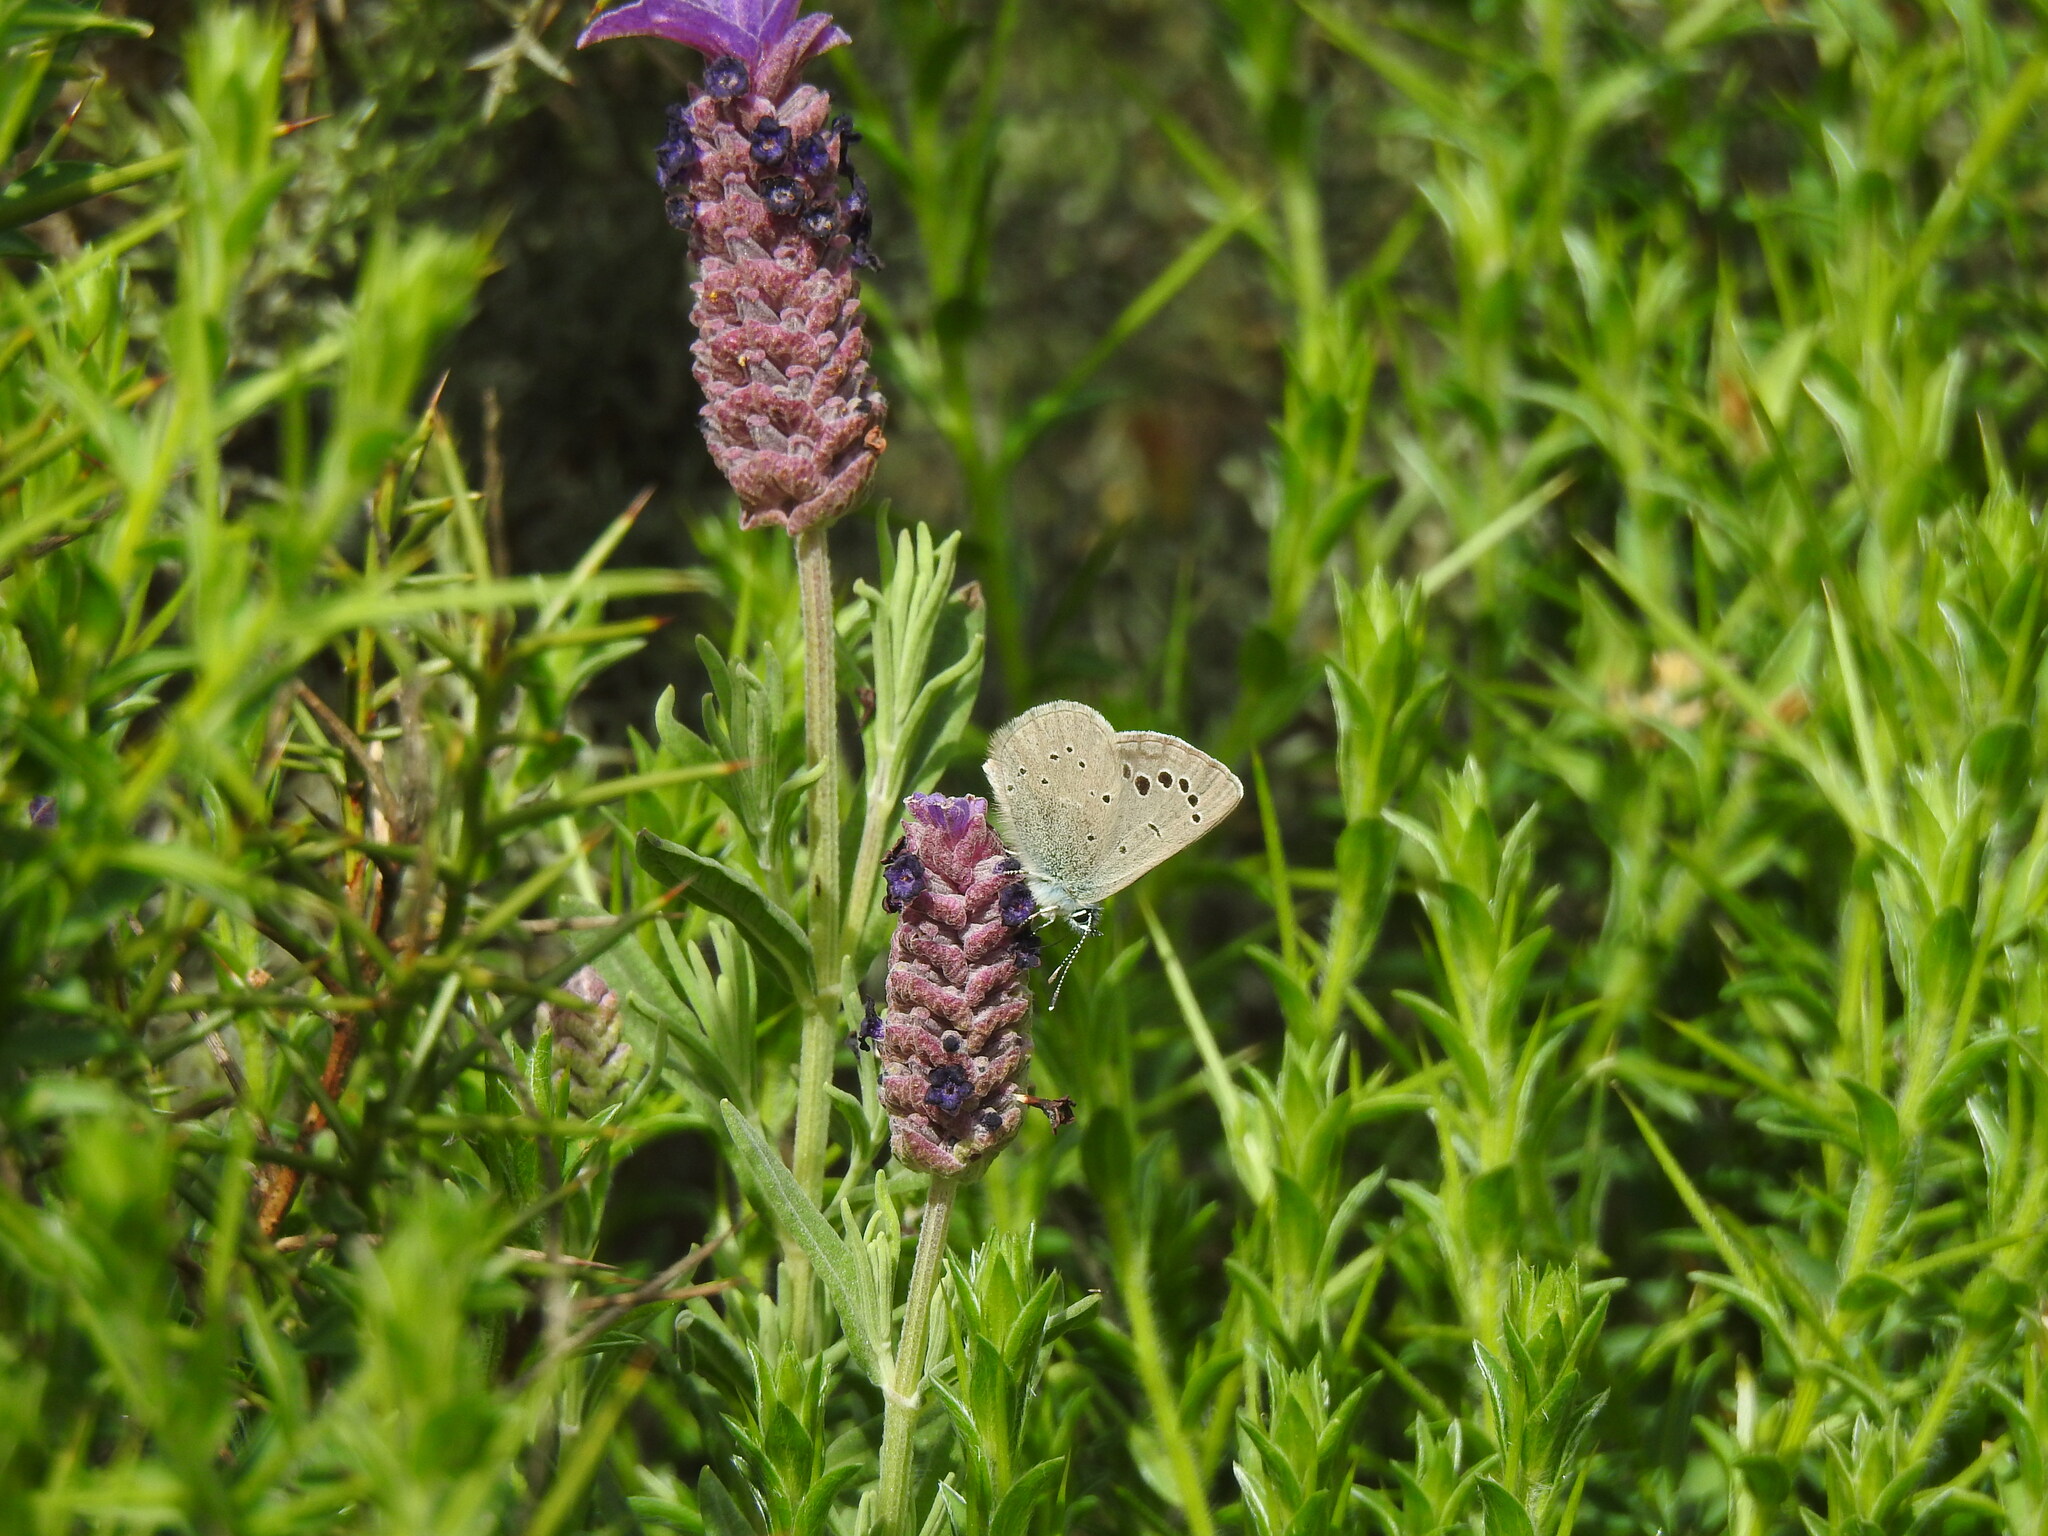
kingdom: Animalia
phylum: Arthropoda
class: Insecta
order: Lepidoptera
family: Lycaenidae
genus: Glaucopsyche
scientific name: Glaucopsyche melanops
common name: Black-eyed blue
